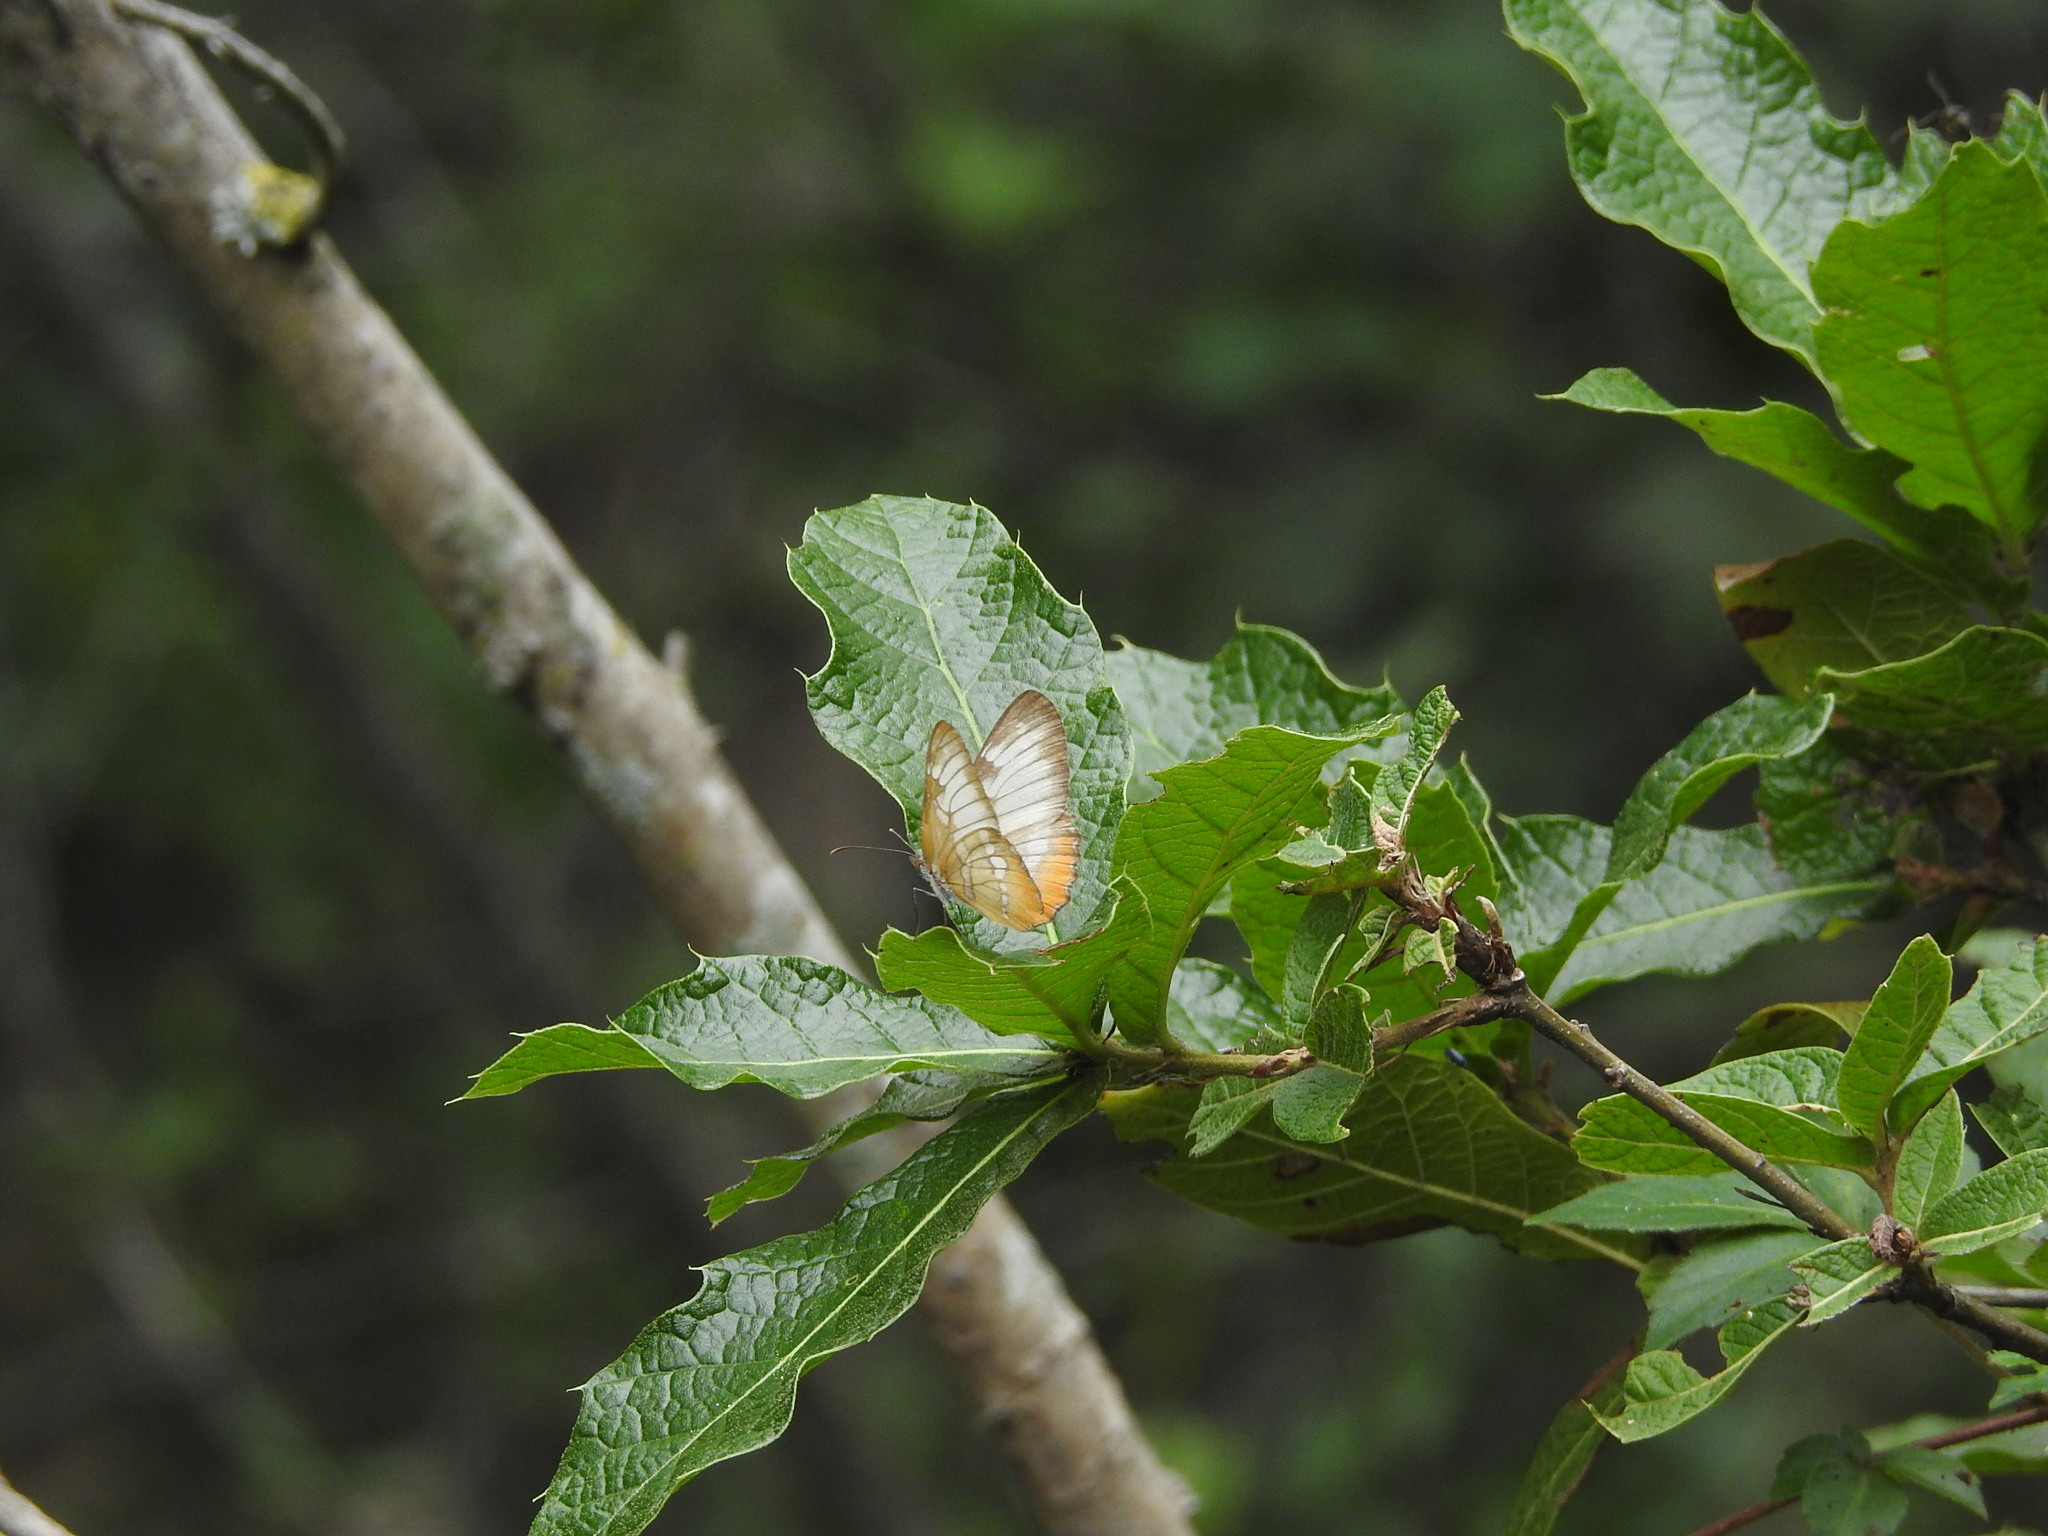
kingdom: Animalia
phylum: Arthropoda
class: Insecta
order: Lepidoptera
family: Nymphalidae
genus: Mestra
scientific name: Mestra amymone
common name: Common mestra
